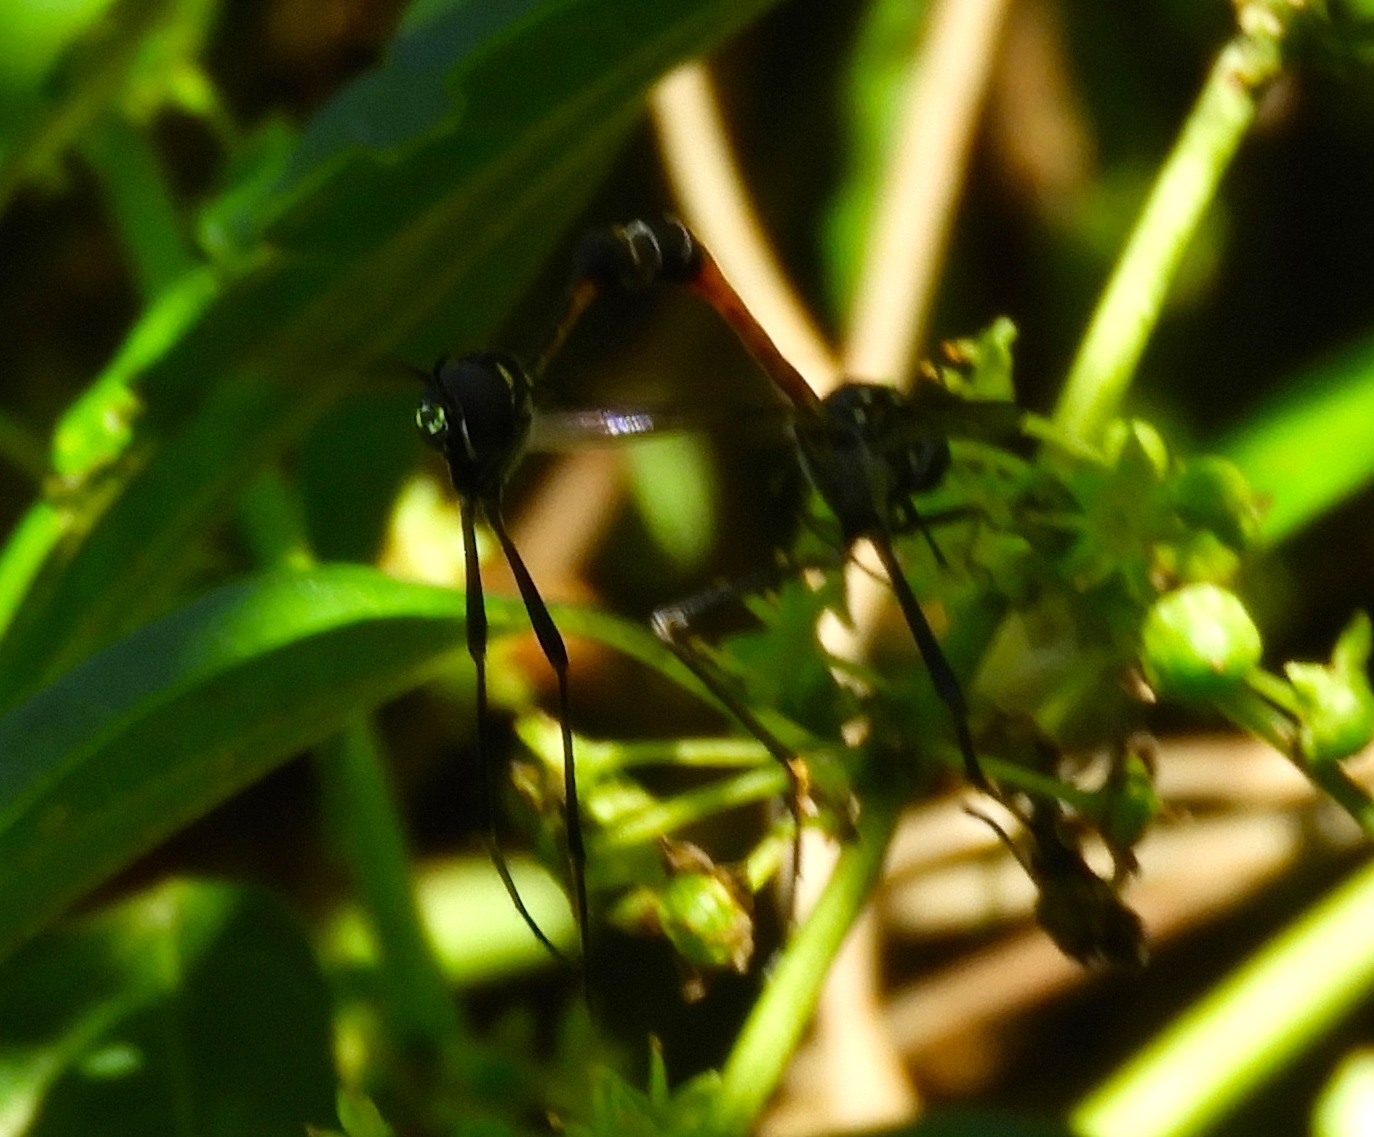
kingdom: Animalia
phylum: Arthropoda
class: Insecta
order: Diptera
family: Bombyliidae
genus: Systropus
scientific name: Systropus
